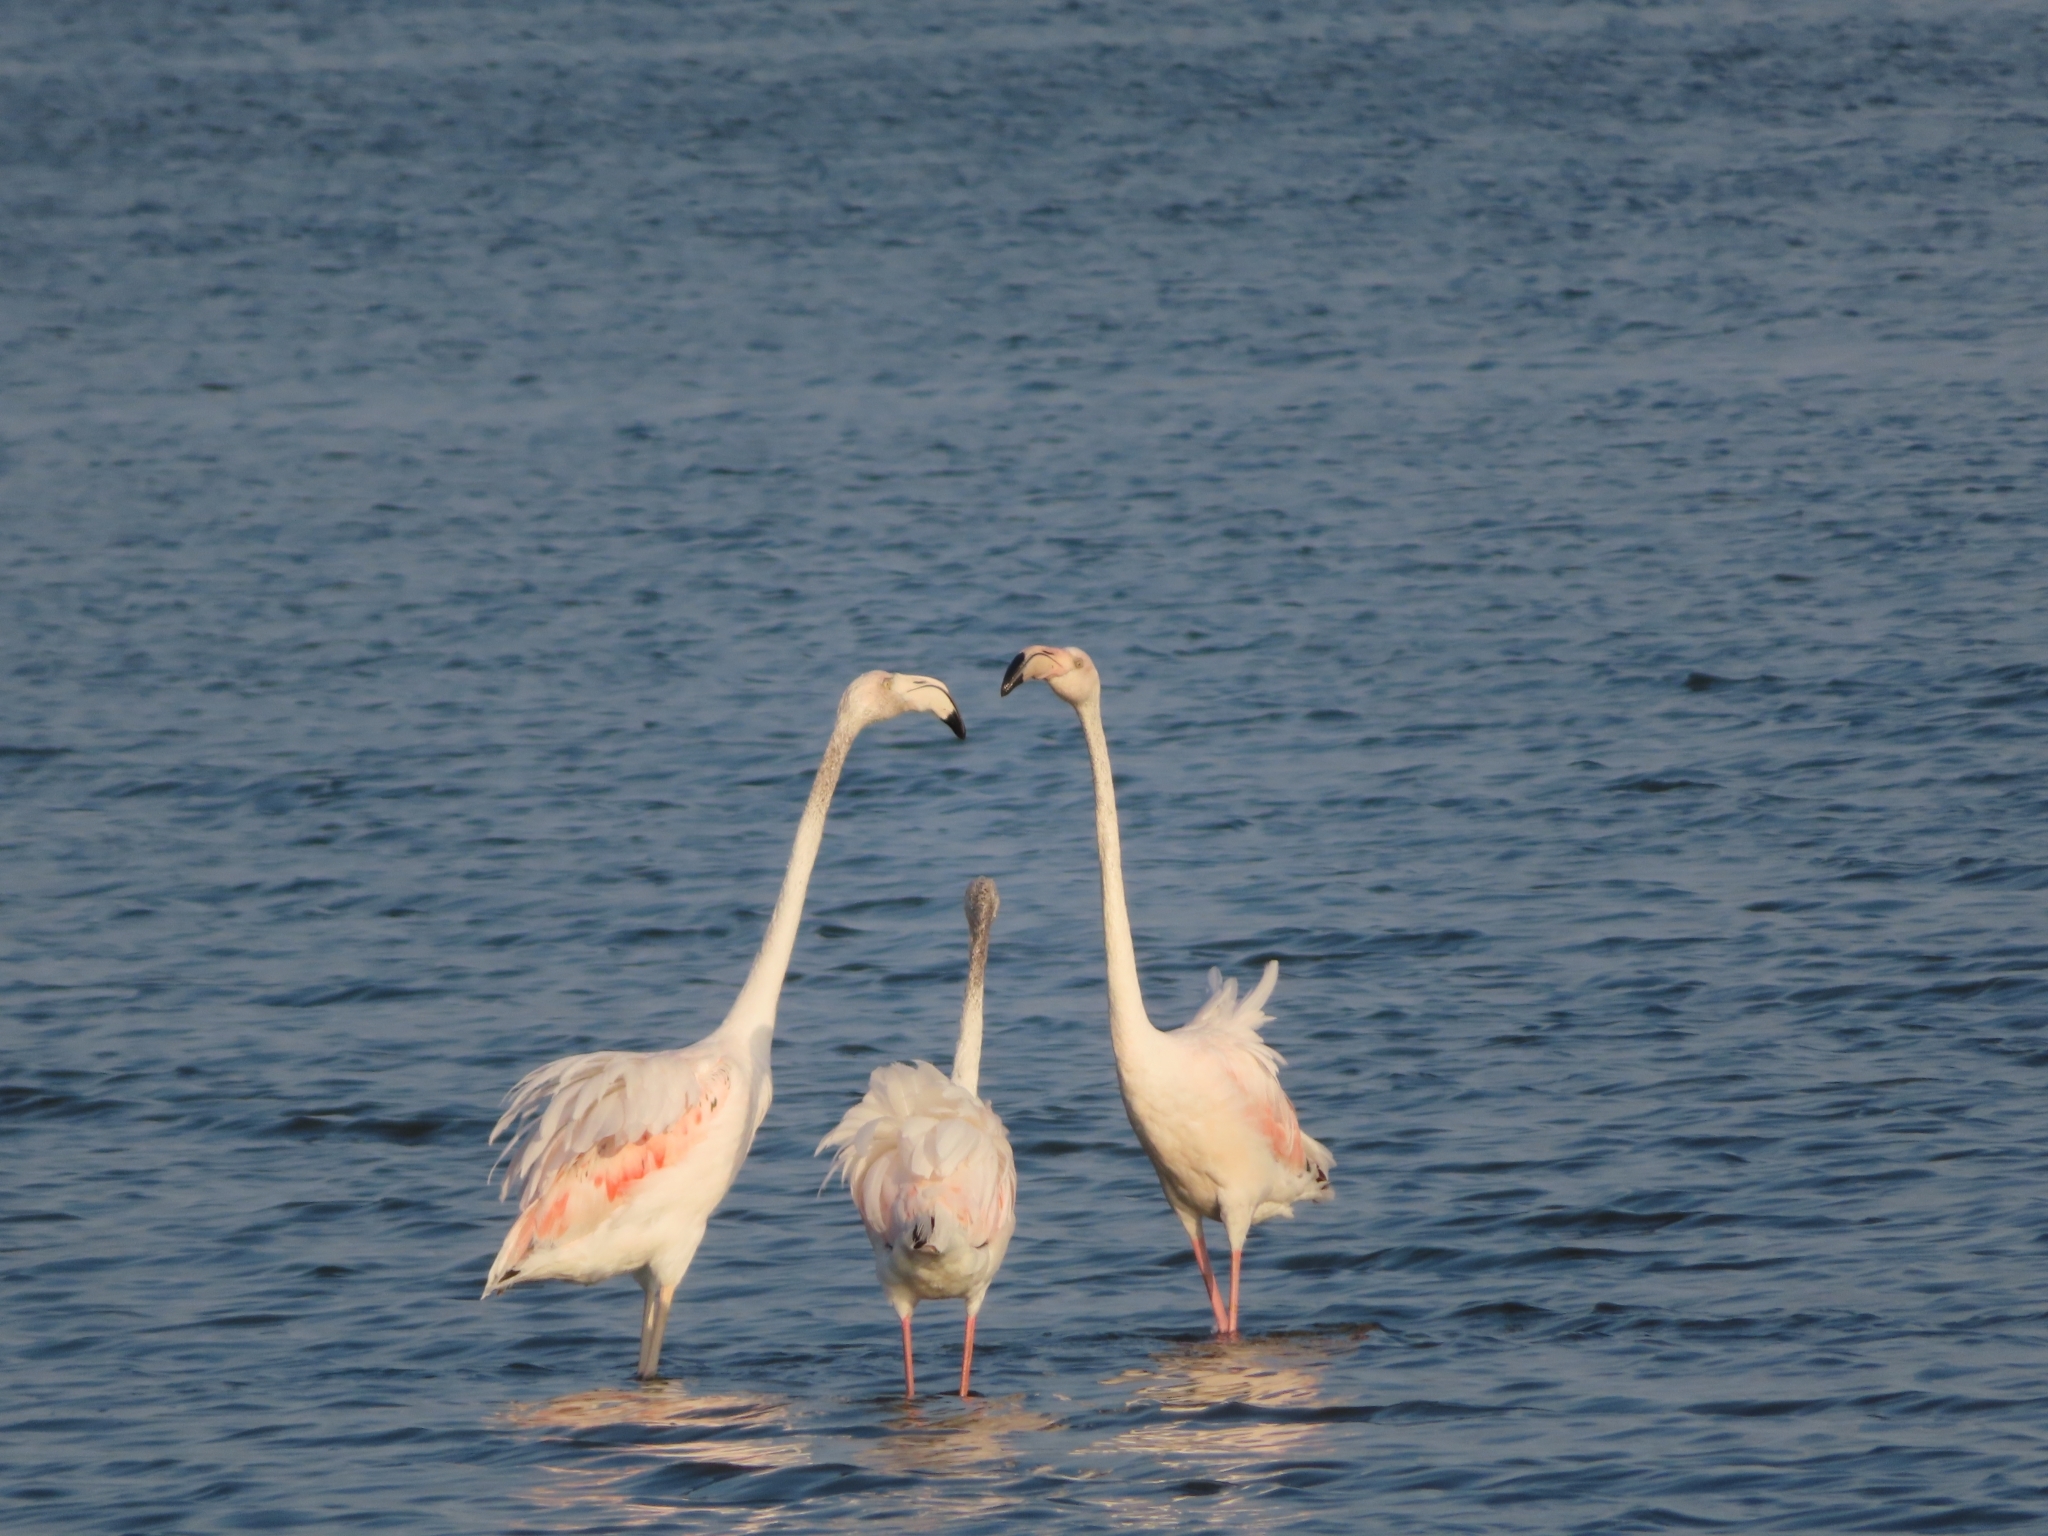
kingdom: Animalia
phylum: Chordata
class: Aves
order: Phoenicopteriformes
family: Phoenicopteridae
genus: Phoenicopterus
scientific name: Phoenicopterus roseus
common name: Greater flamingo
